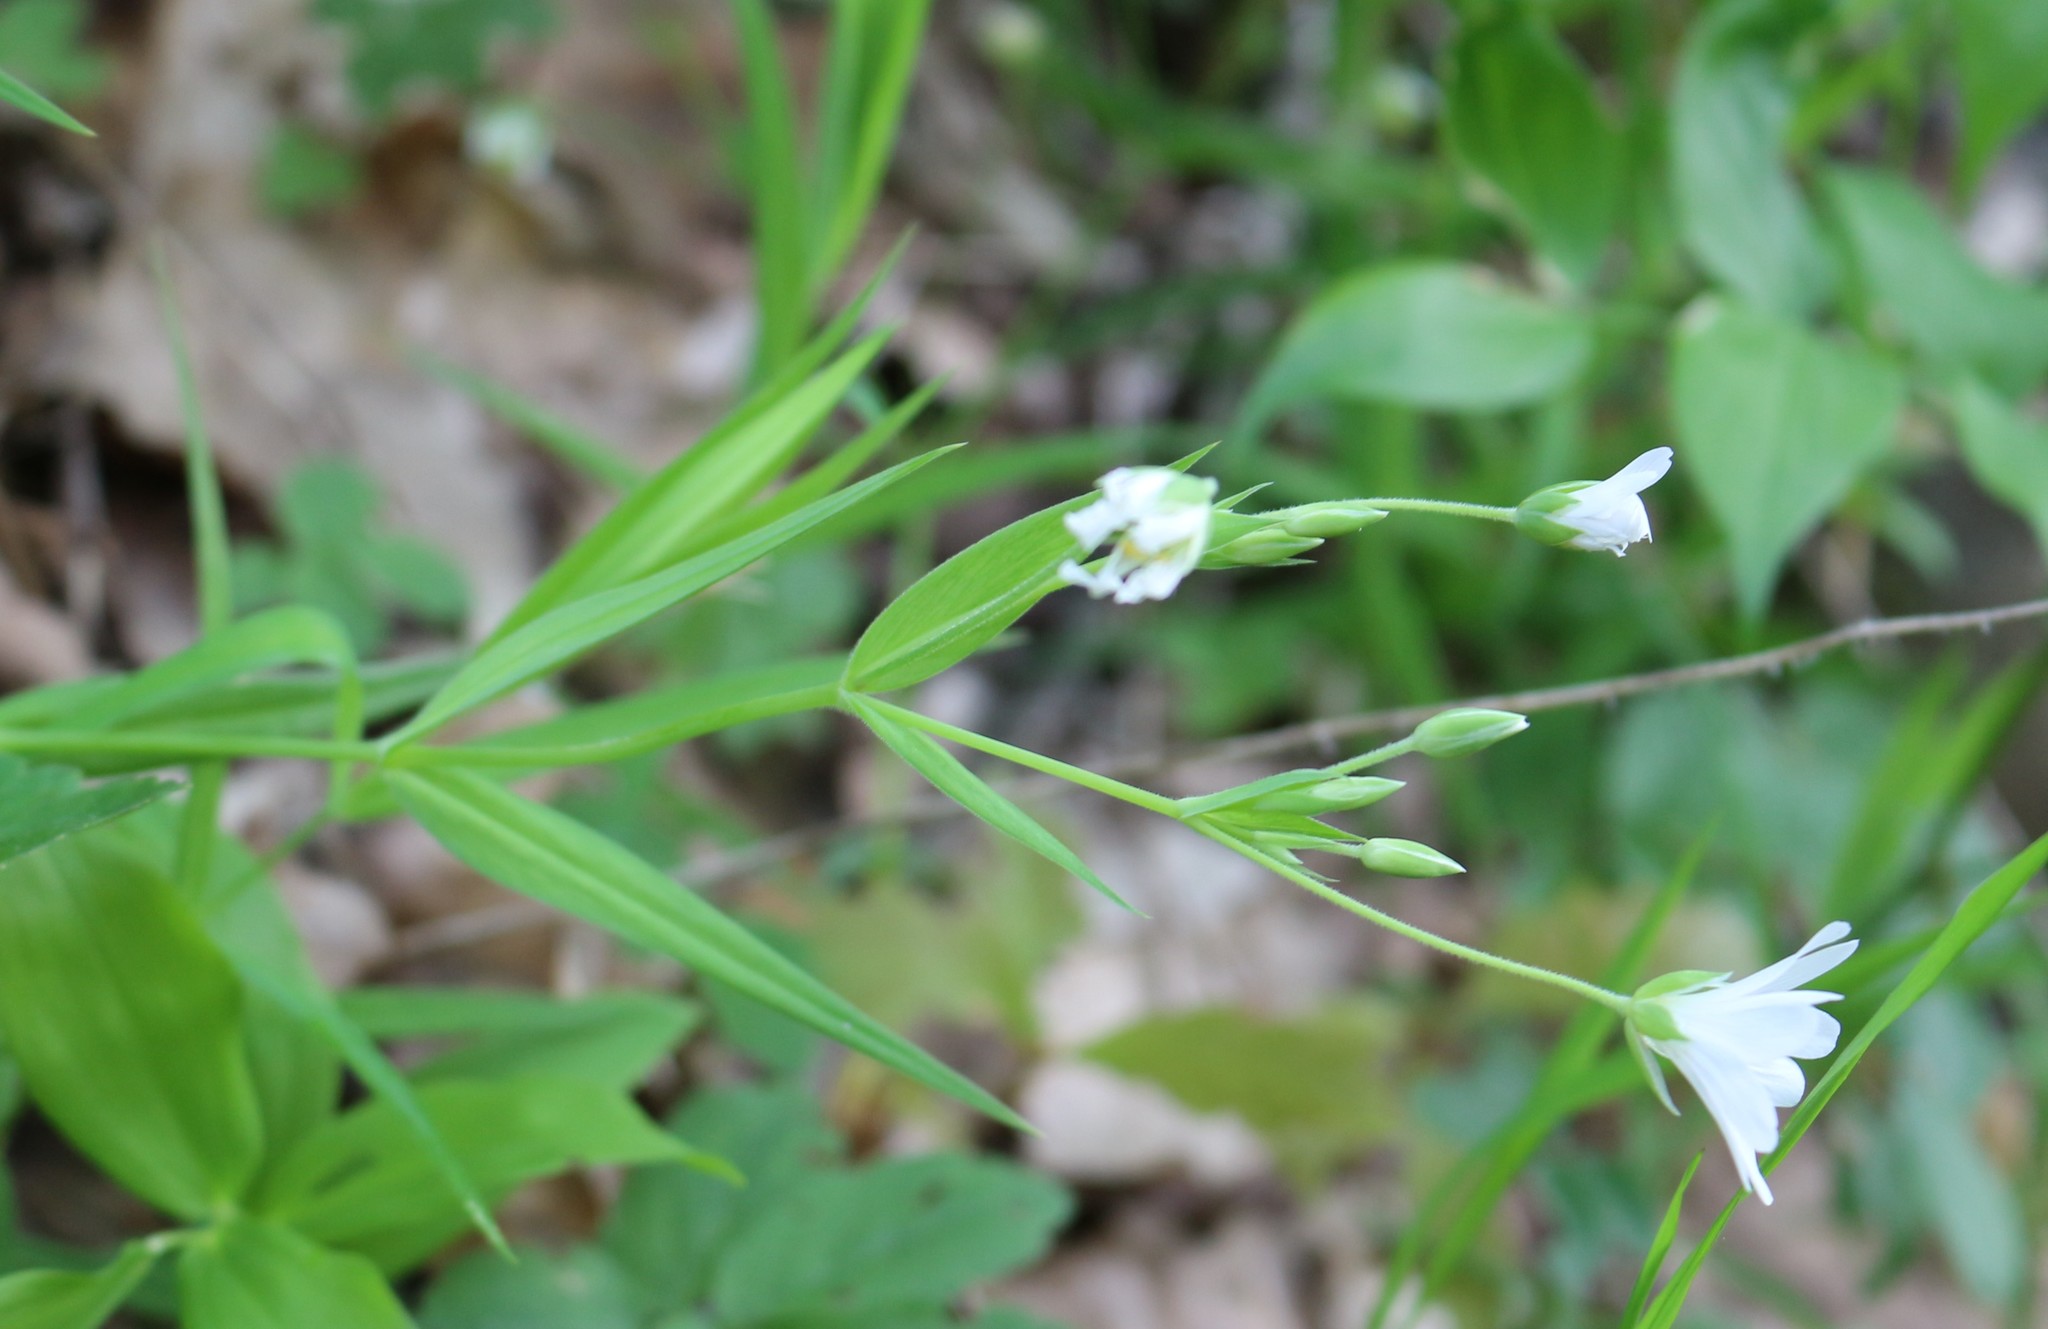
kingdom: Plantae
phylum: Tracheophyta
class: Magnoliopsida
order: Caryophyllales
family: Caryophyllaceae
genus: Rabelera
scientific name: Rabelera holostea
